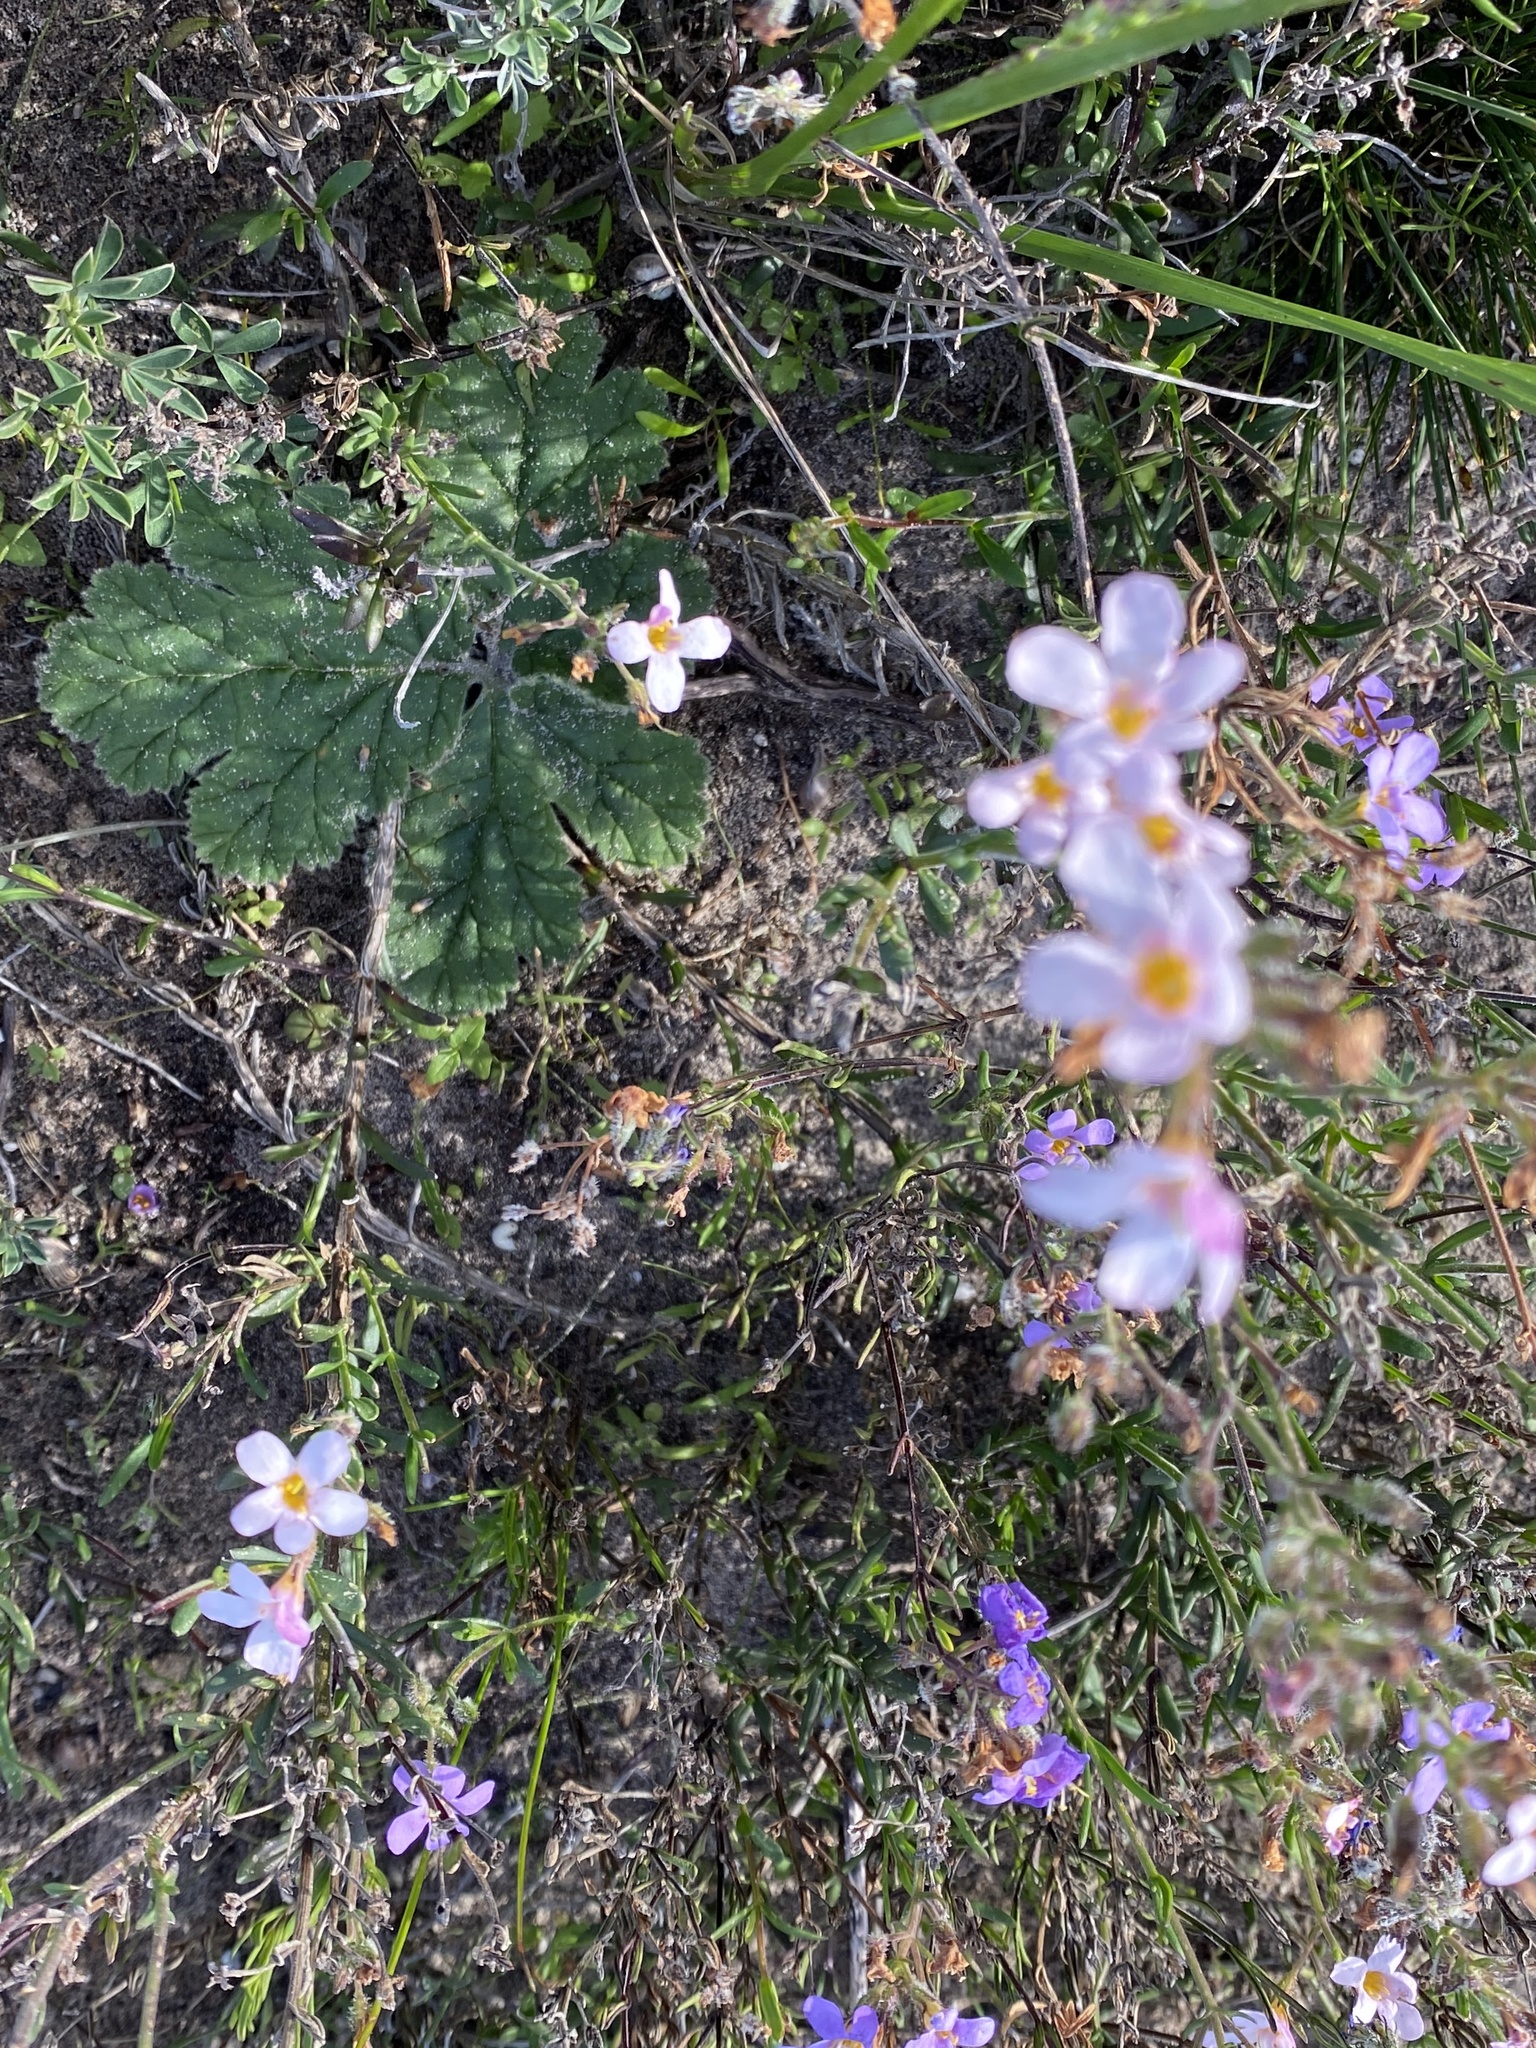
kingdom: Plantae
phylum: Tracheophyta
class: Magnoliopsida
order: Lamiales
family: Scrophulariaceae
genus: Chaenostoma
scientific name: Chaenostoma calciphilum
